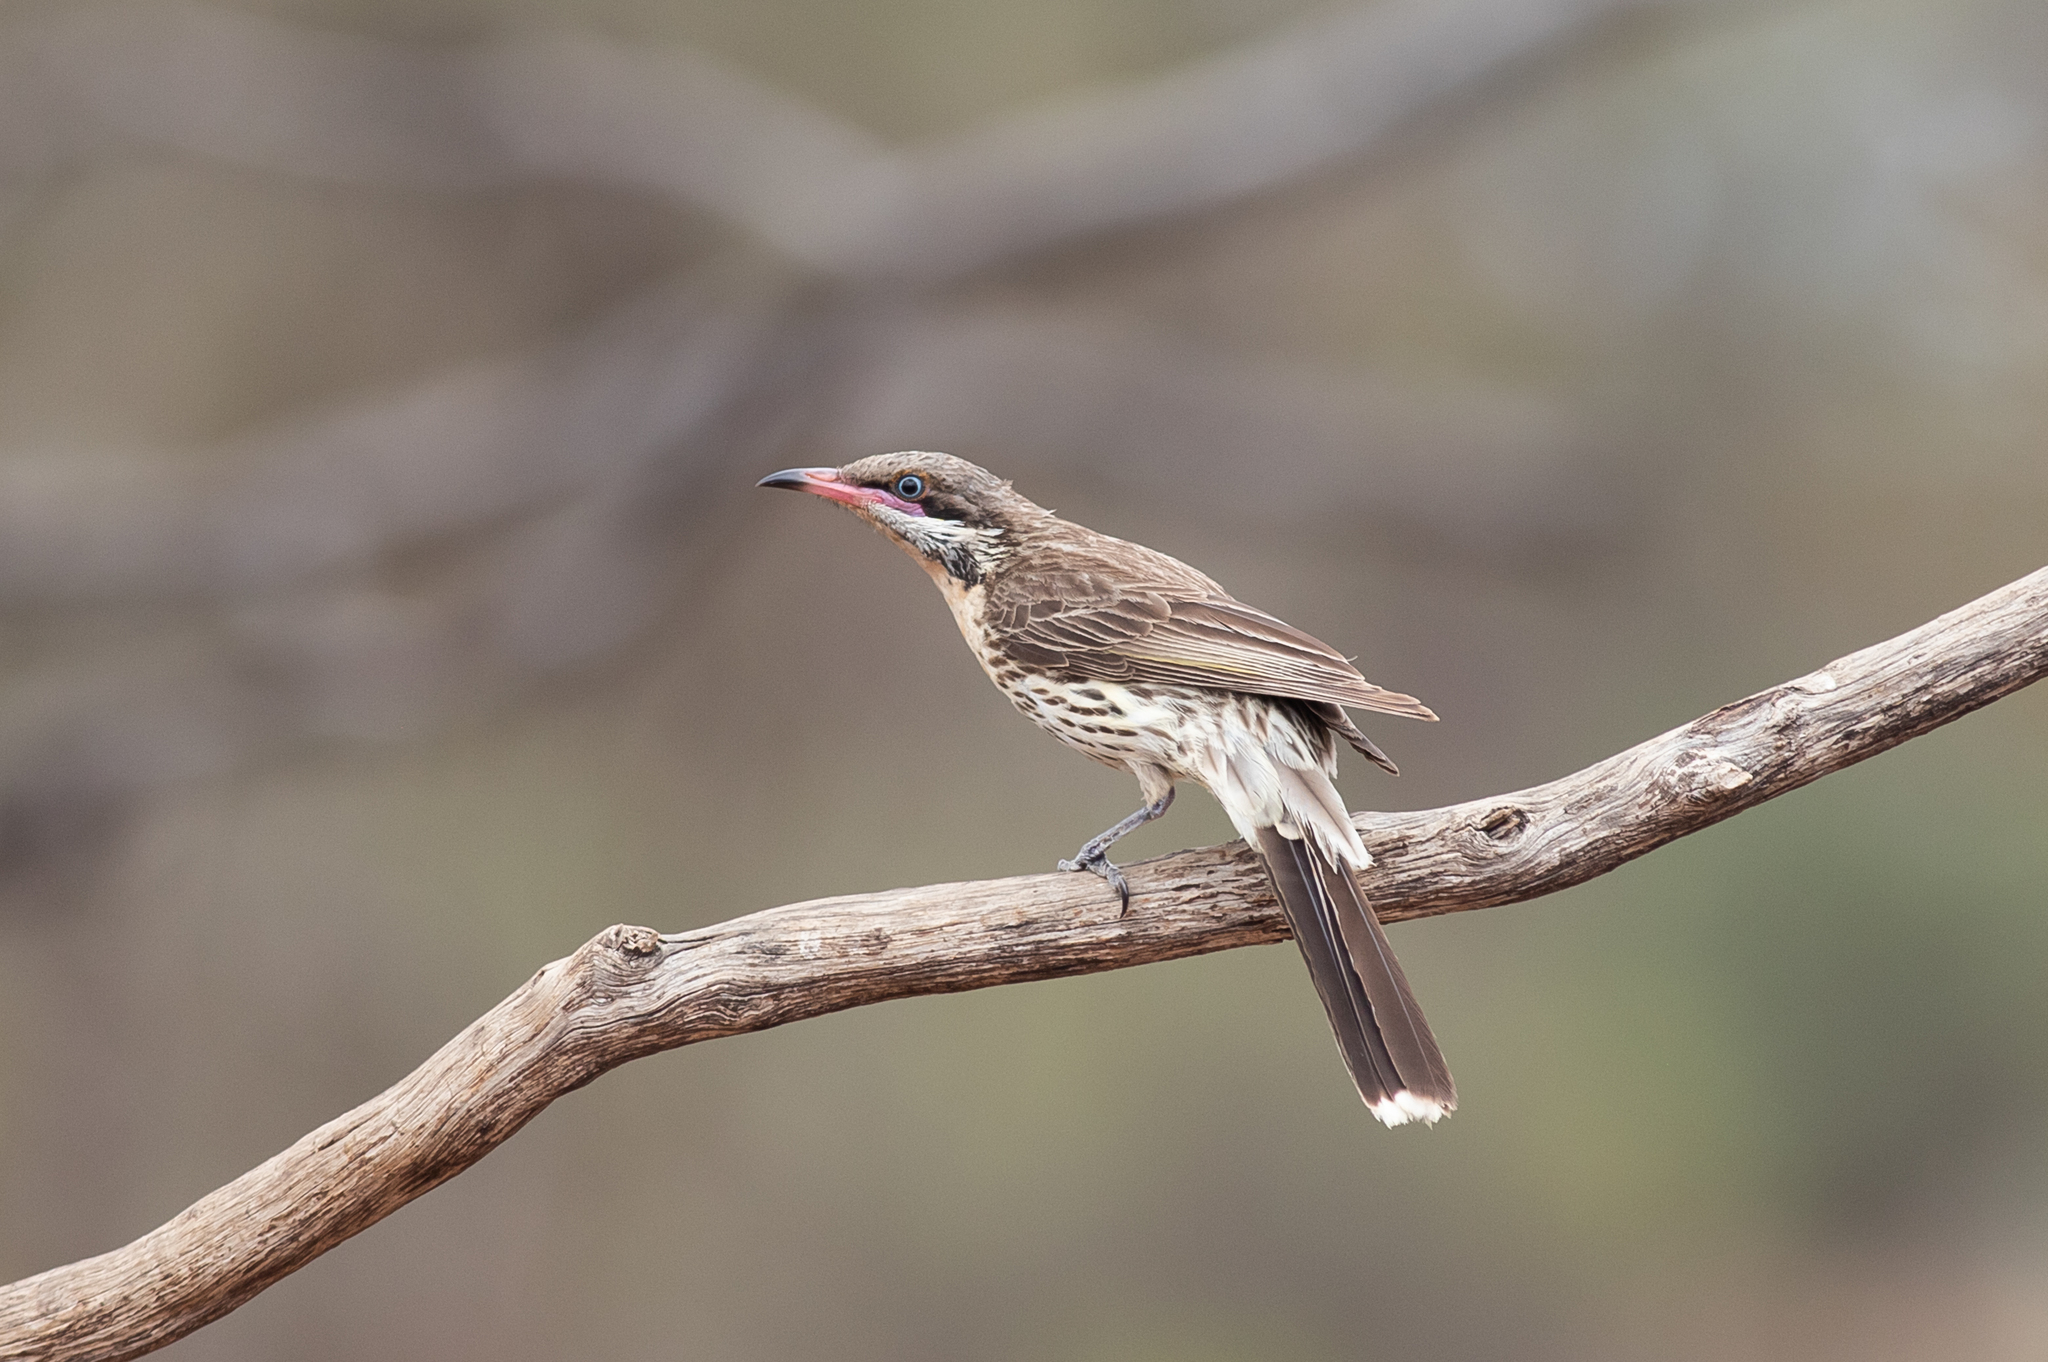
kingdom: Animalia
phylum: Chordata
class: Aves
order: Passeriformes
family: Meliphagidae
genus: Acanthagenys
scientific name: Acanthagenys rufogularis
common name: Spiny-cheeked honeyeater
